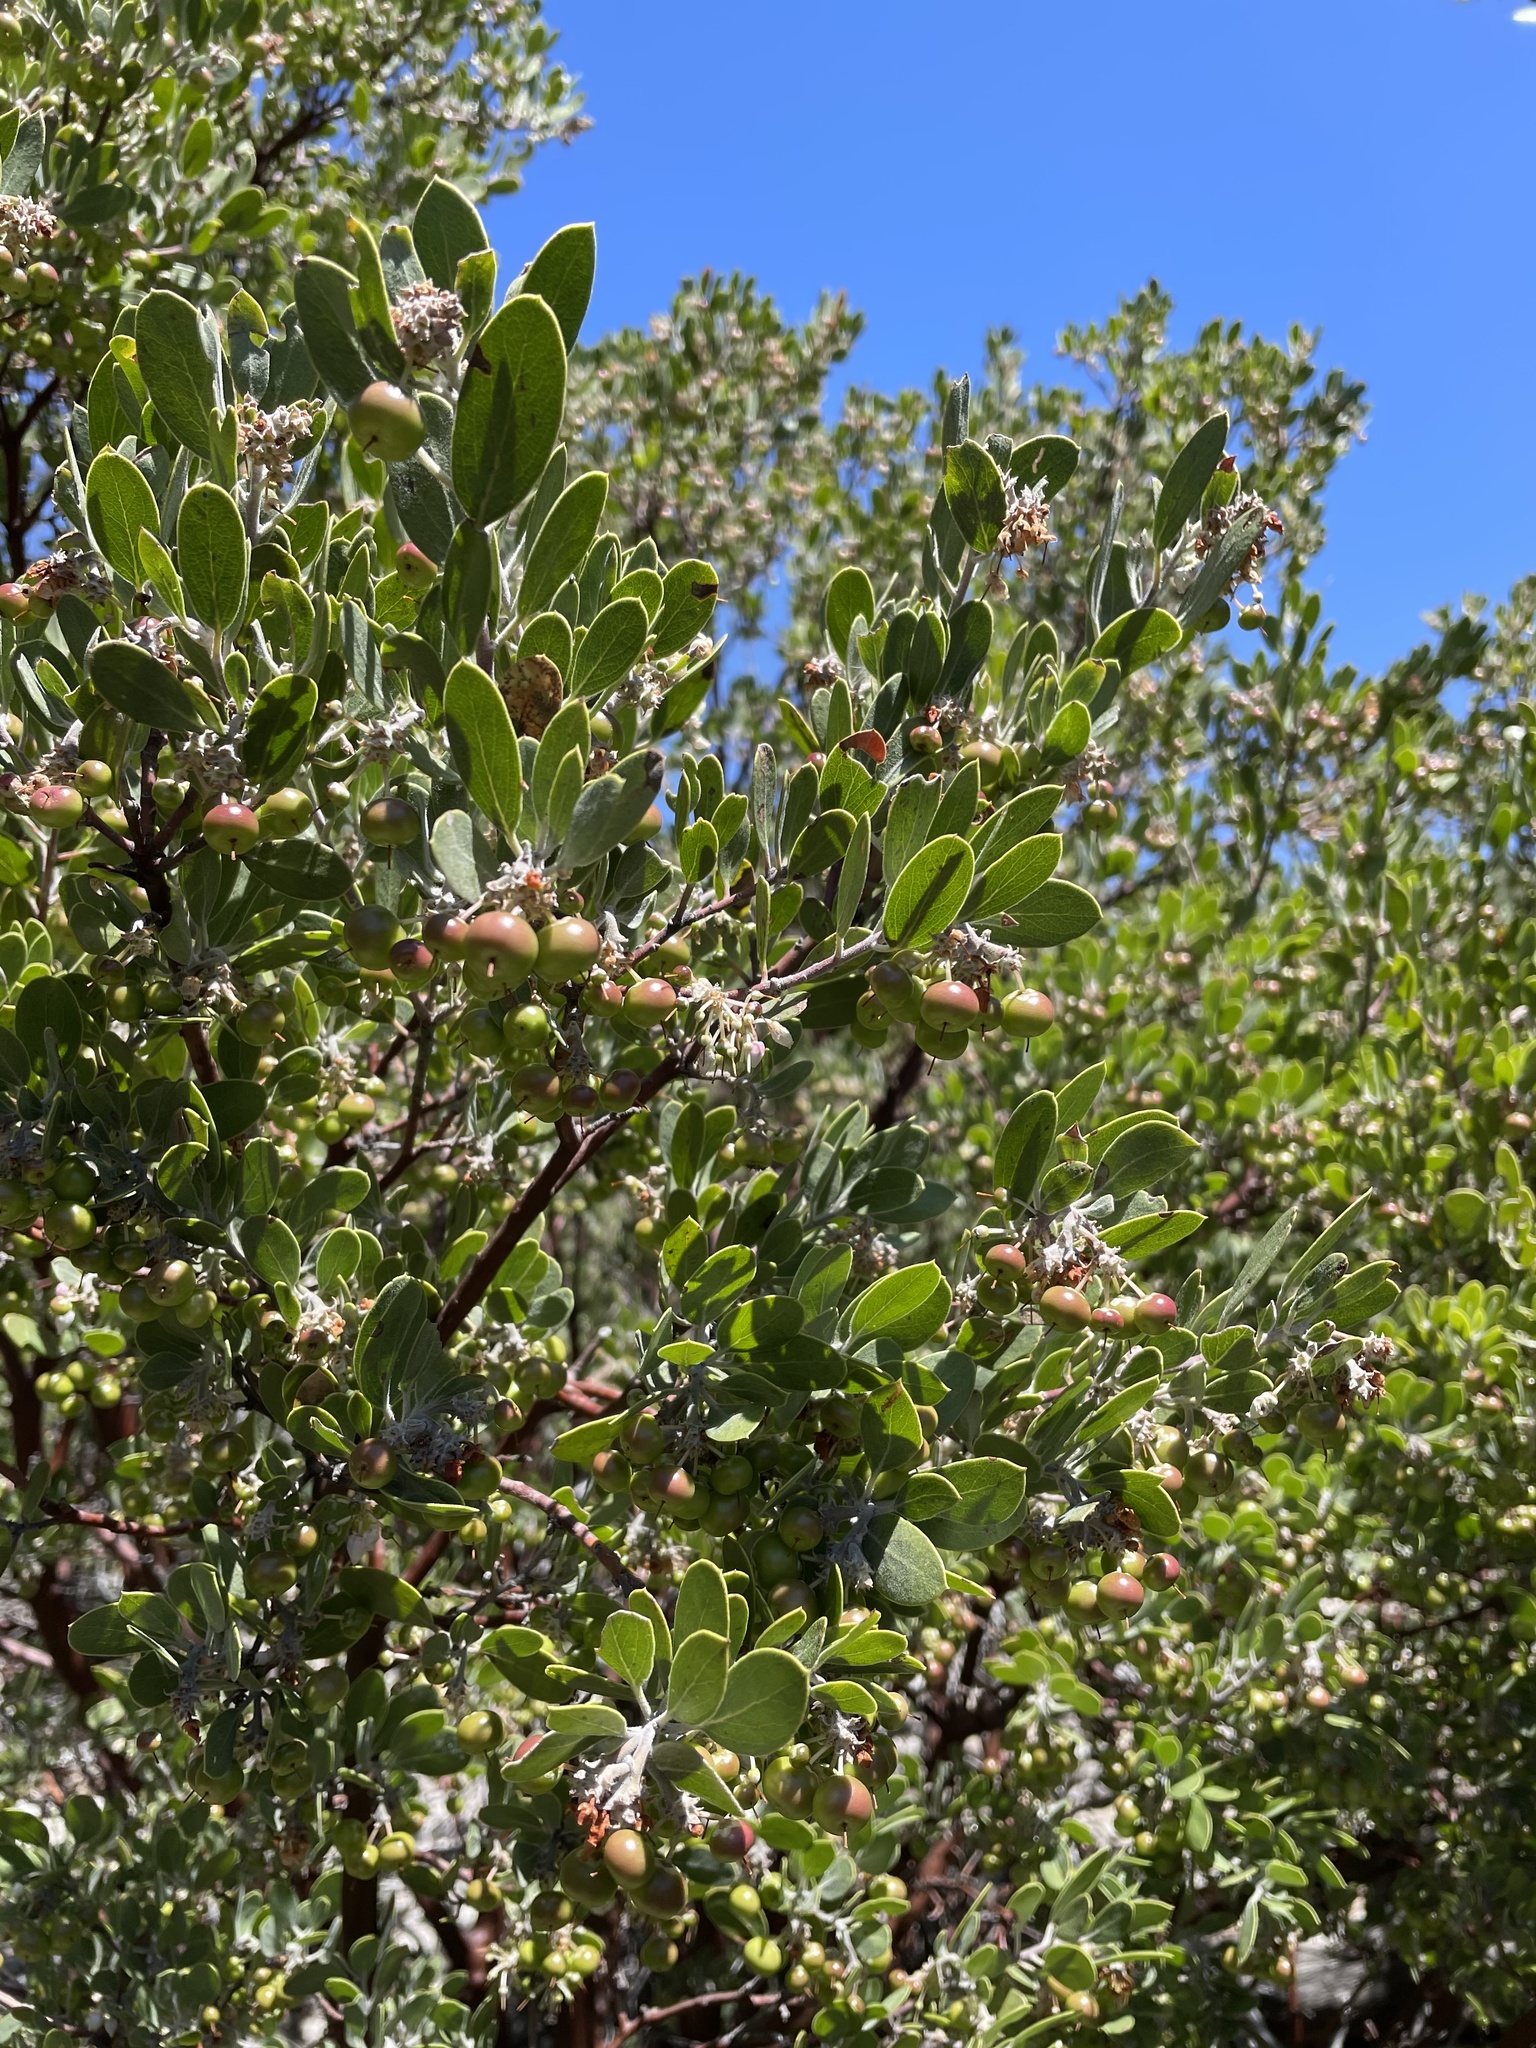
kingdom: Plantae
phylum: Tracheophyta
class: Magnoliopsida
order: Ericales
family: Ericaceae
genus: Arctostaphylos
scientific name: Arctostaphylos pungens
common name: Mexican manzanita
